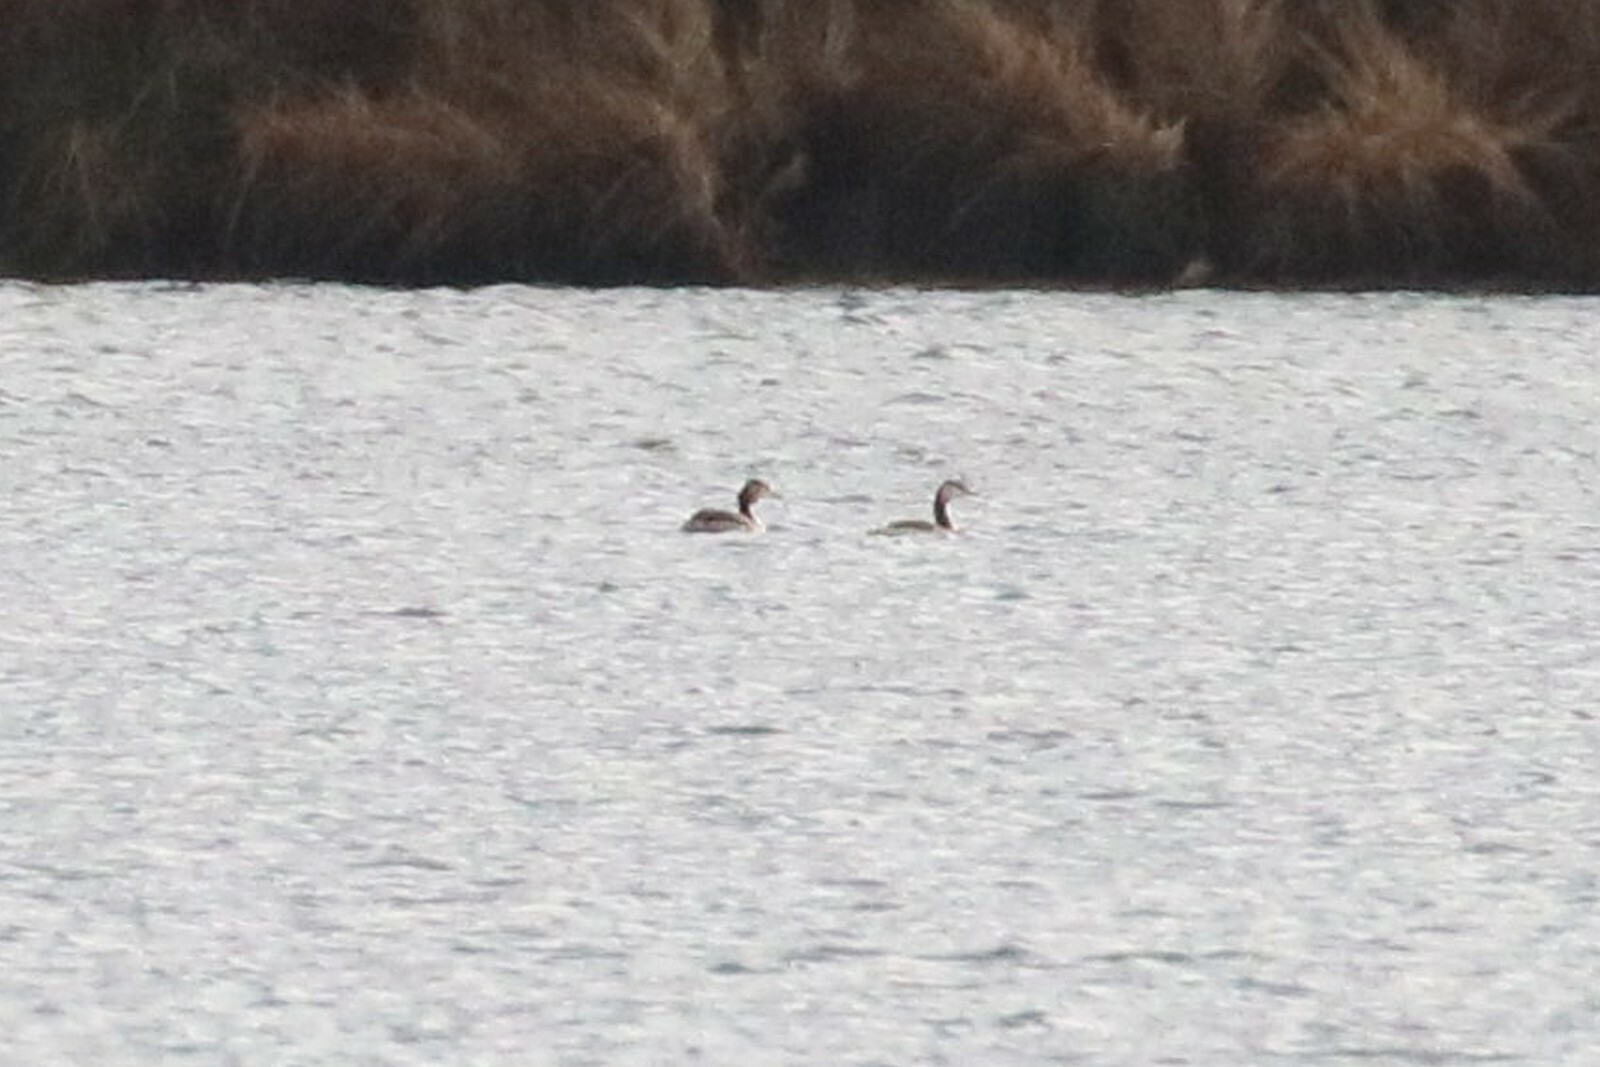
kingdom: Animalia
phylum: Chordata
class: Aves
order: Podicipediformes
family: Podicipedidae
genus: Podiceps
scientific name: Podiceps cristatus
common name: Great crested grebe
